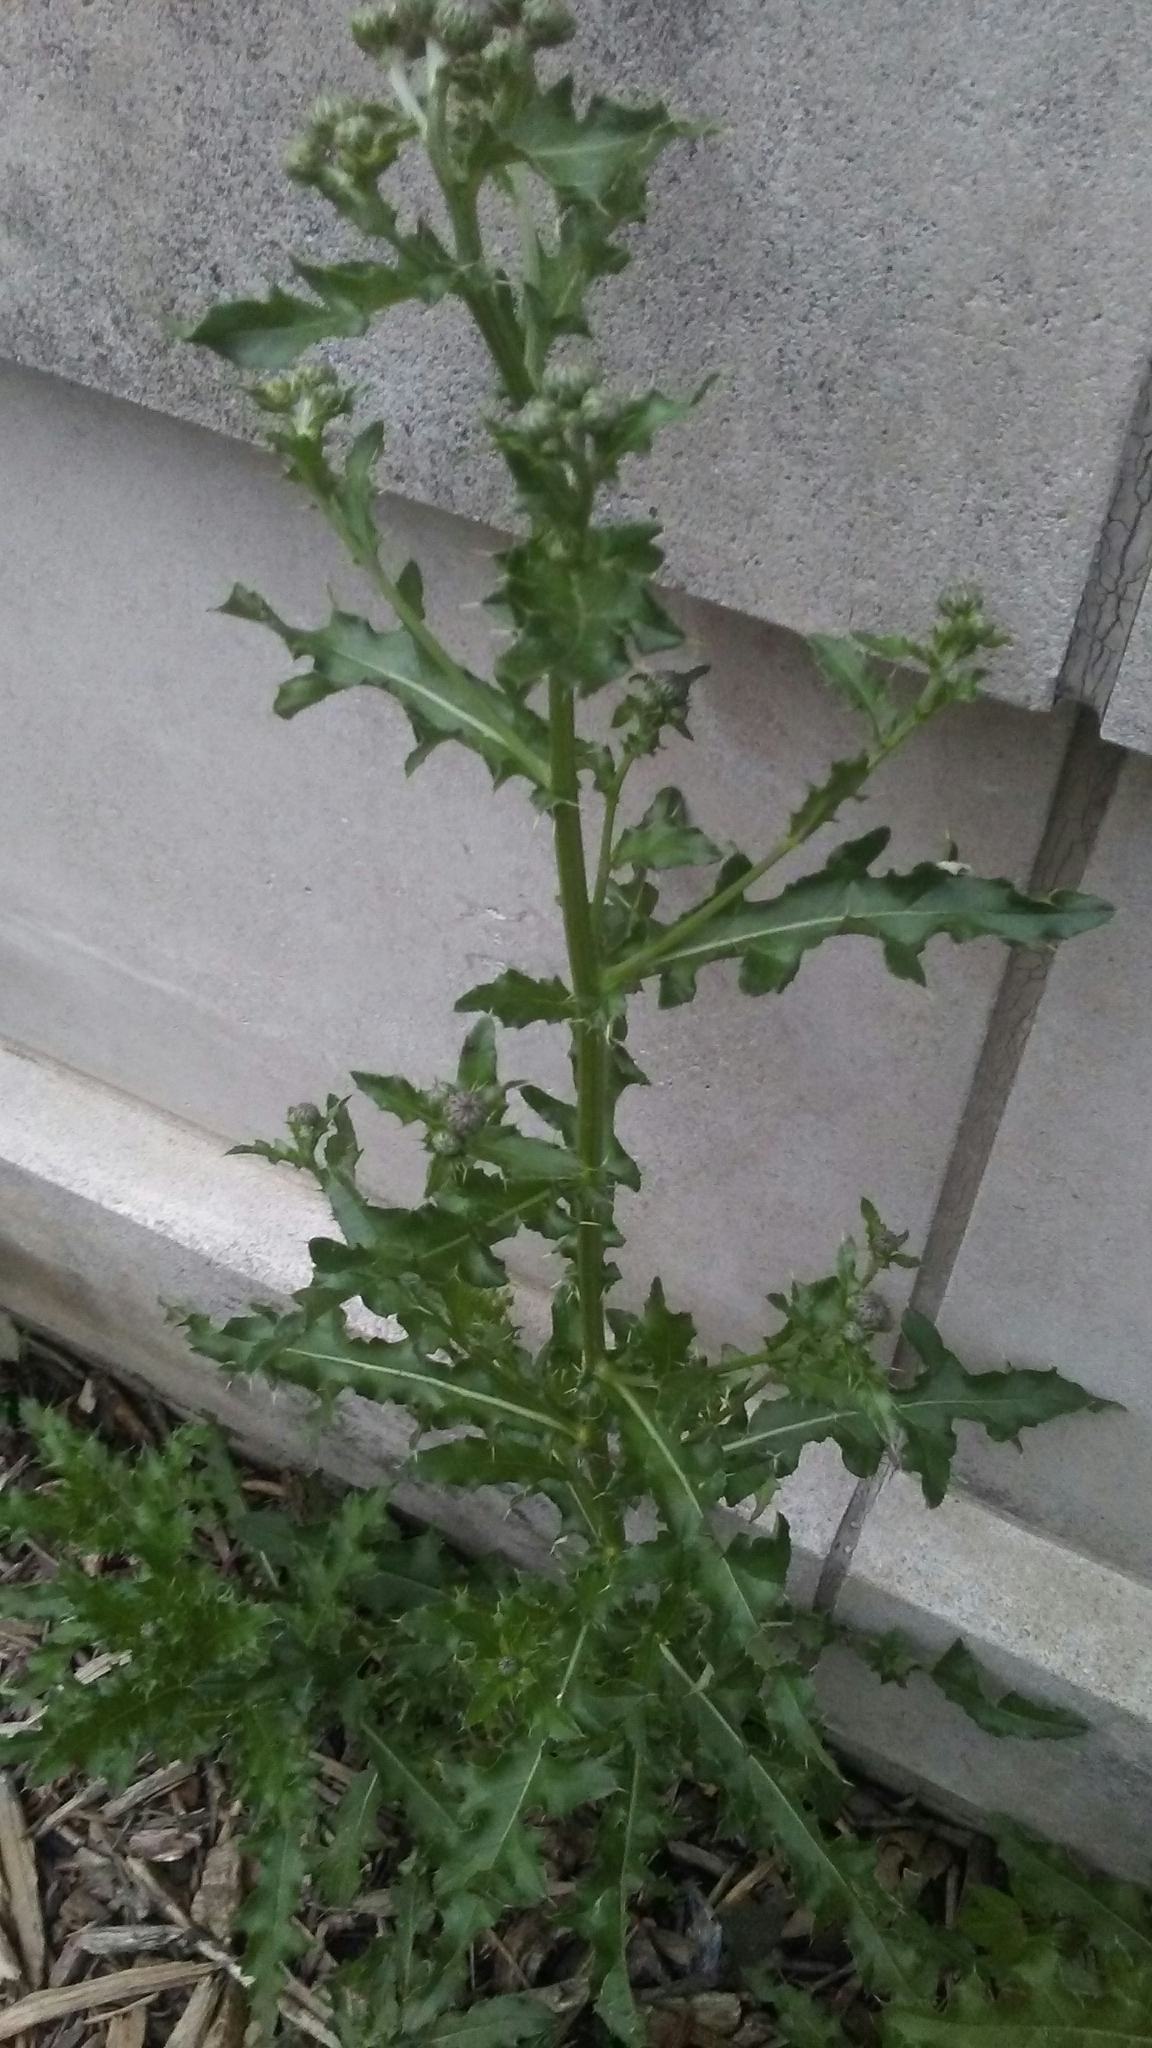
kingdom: Plantae
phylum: Tracheophyta
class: Magnoliopsida
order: Asterales
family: Asteraceae
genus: Cirsium
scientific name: Cirsium arvense
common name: Creeping thistle
